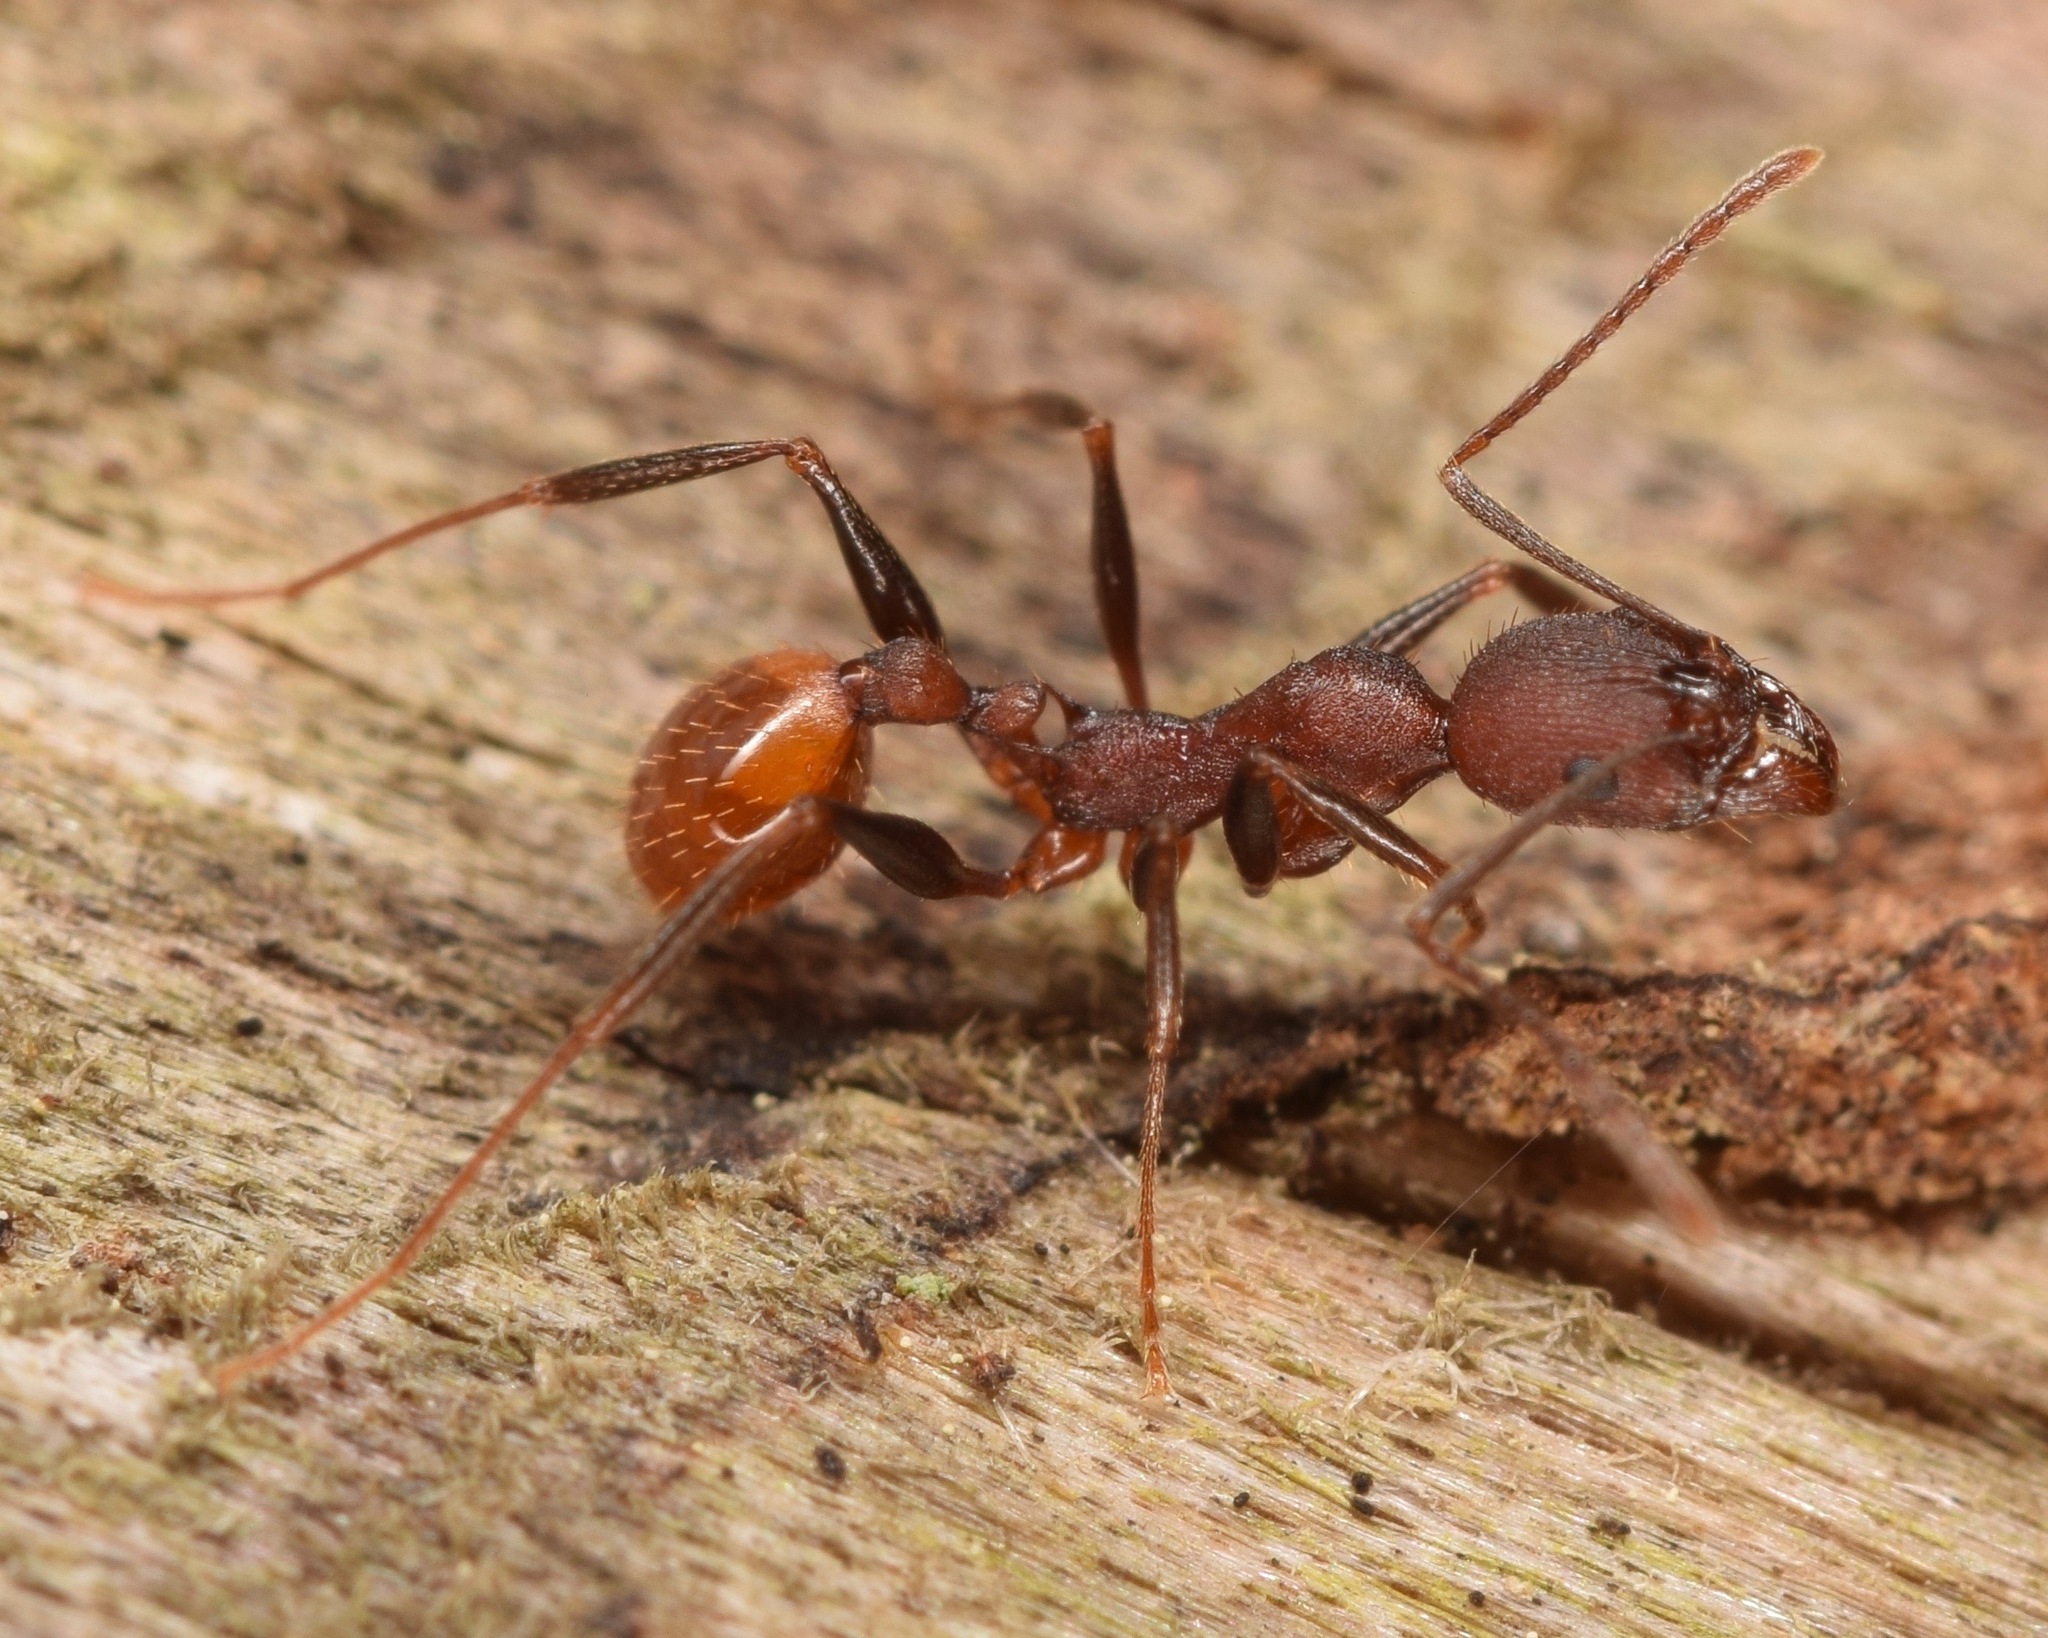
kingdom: Animalia
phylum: Arthropoda
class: Insecta
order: Hymenoptera
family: Formicidae
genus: Aphaenogaster
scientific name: Aphaenogaster lamellidens
